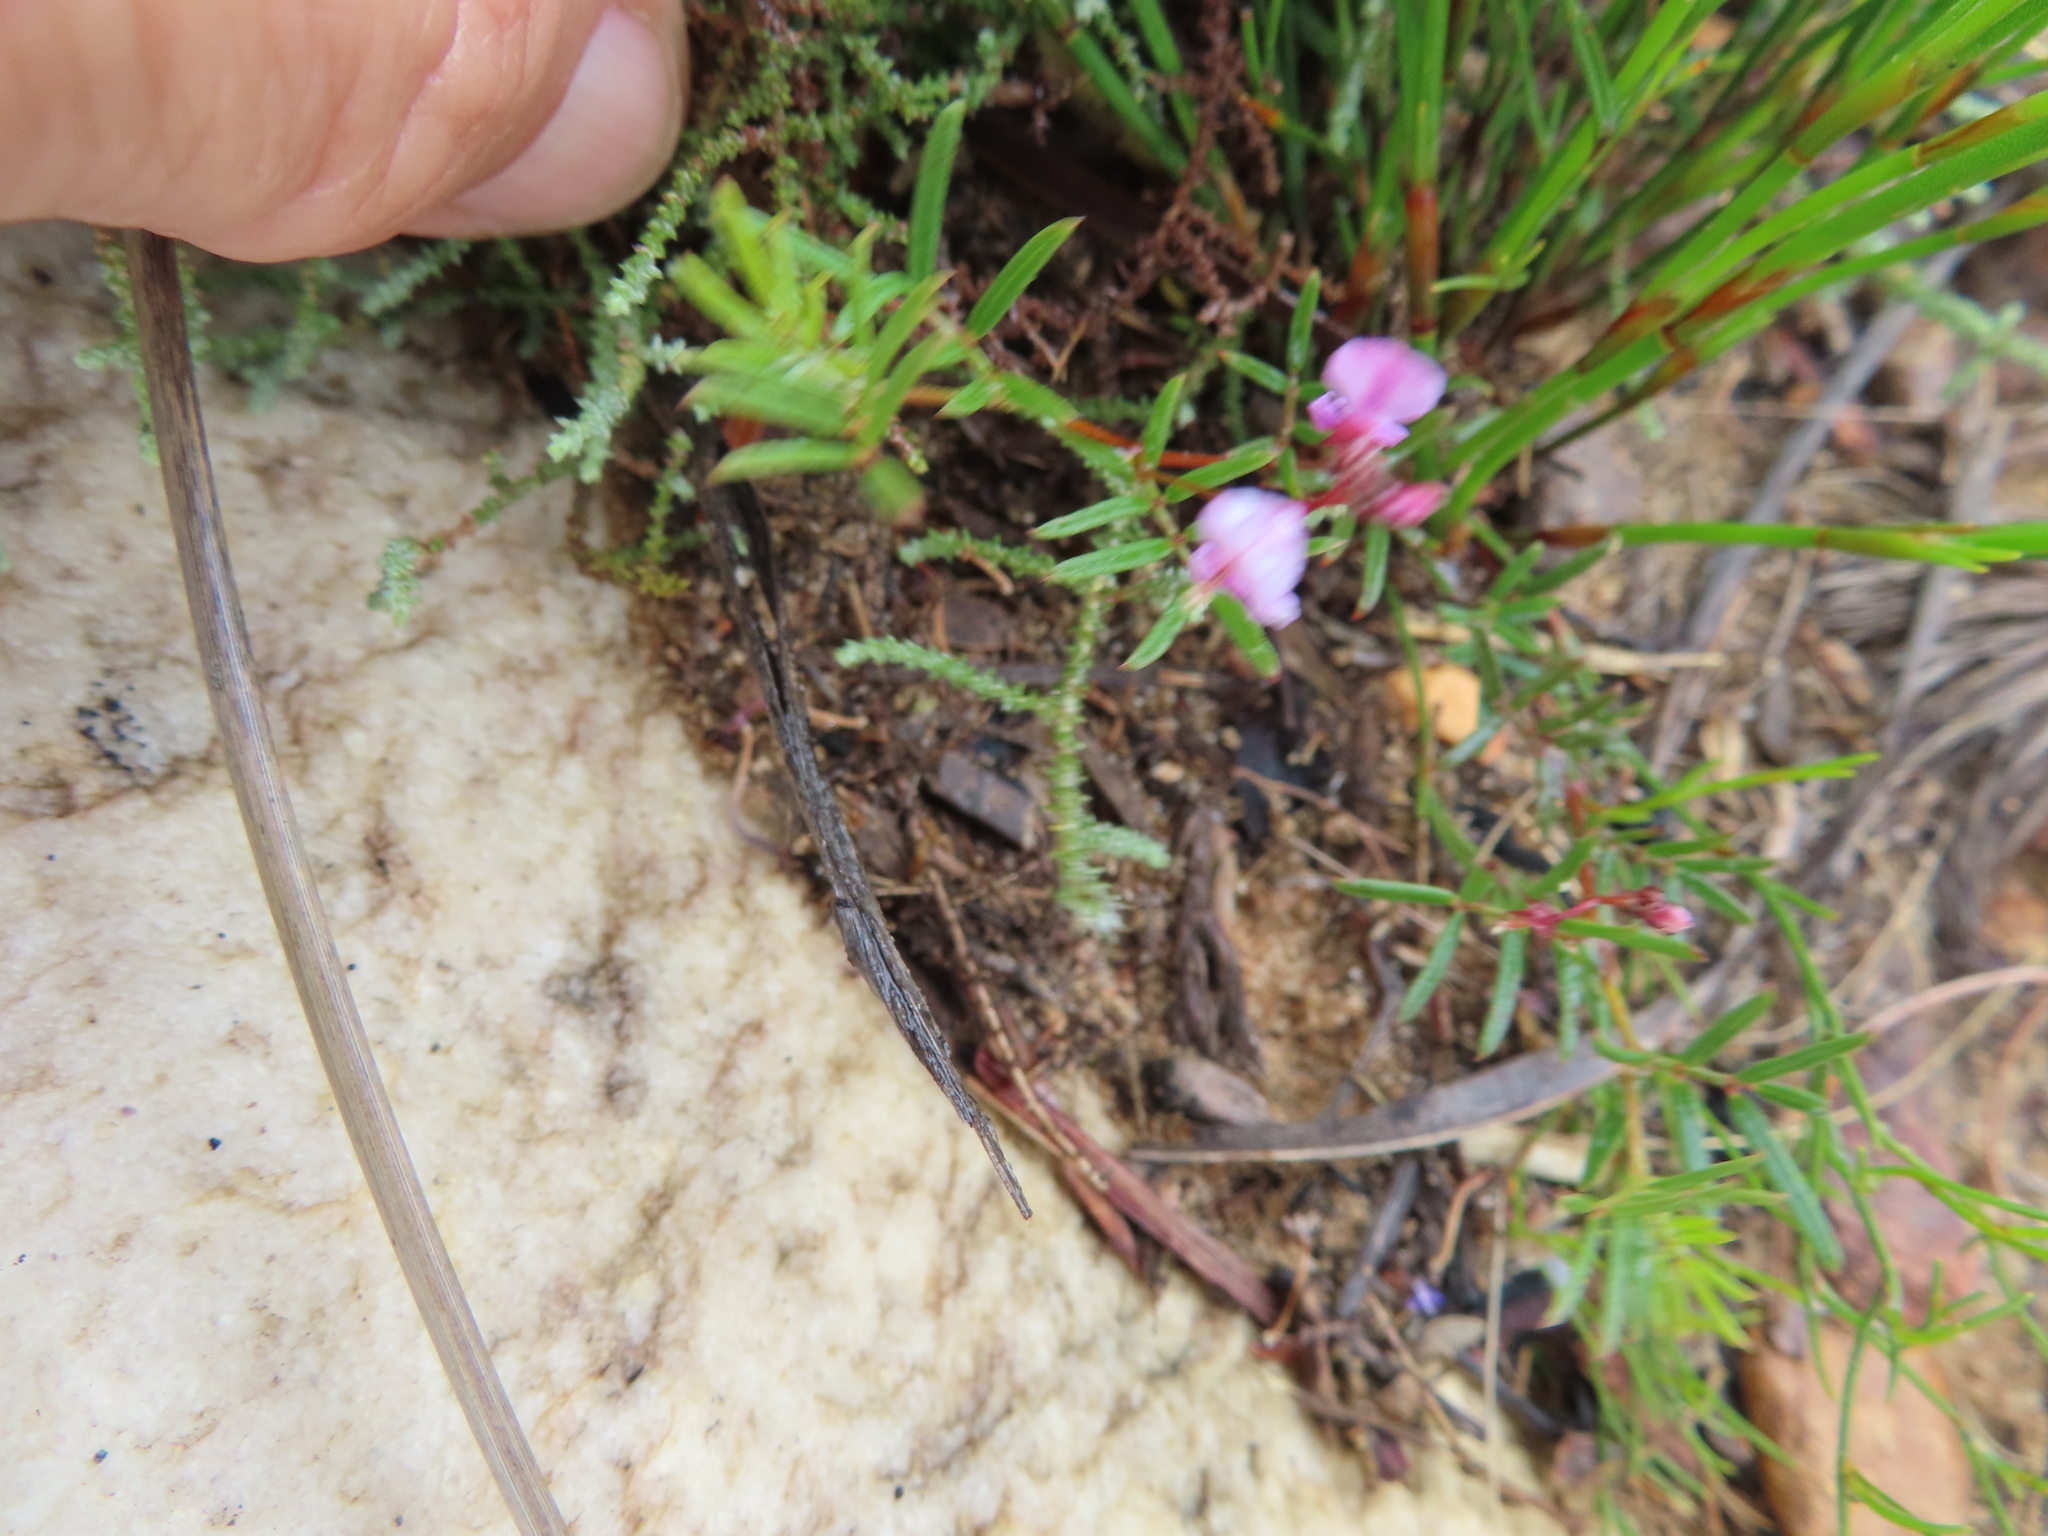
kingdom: Plantae
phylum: Tracheophyta
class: Magnoliopsida
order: Fabales
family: Fabaceae
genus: Indigofera
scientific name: Indigofera angustifolia
